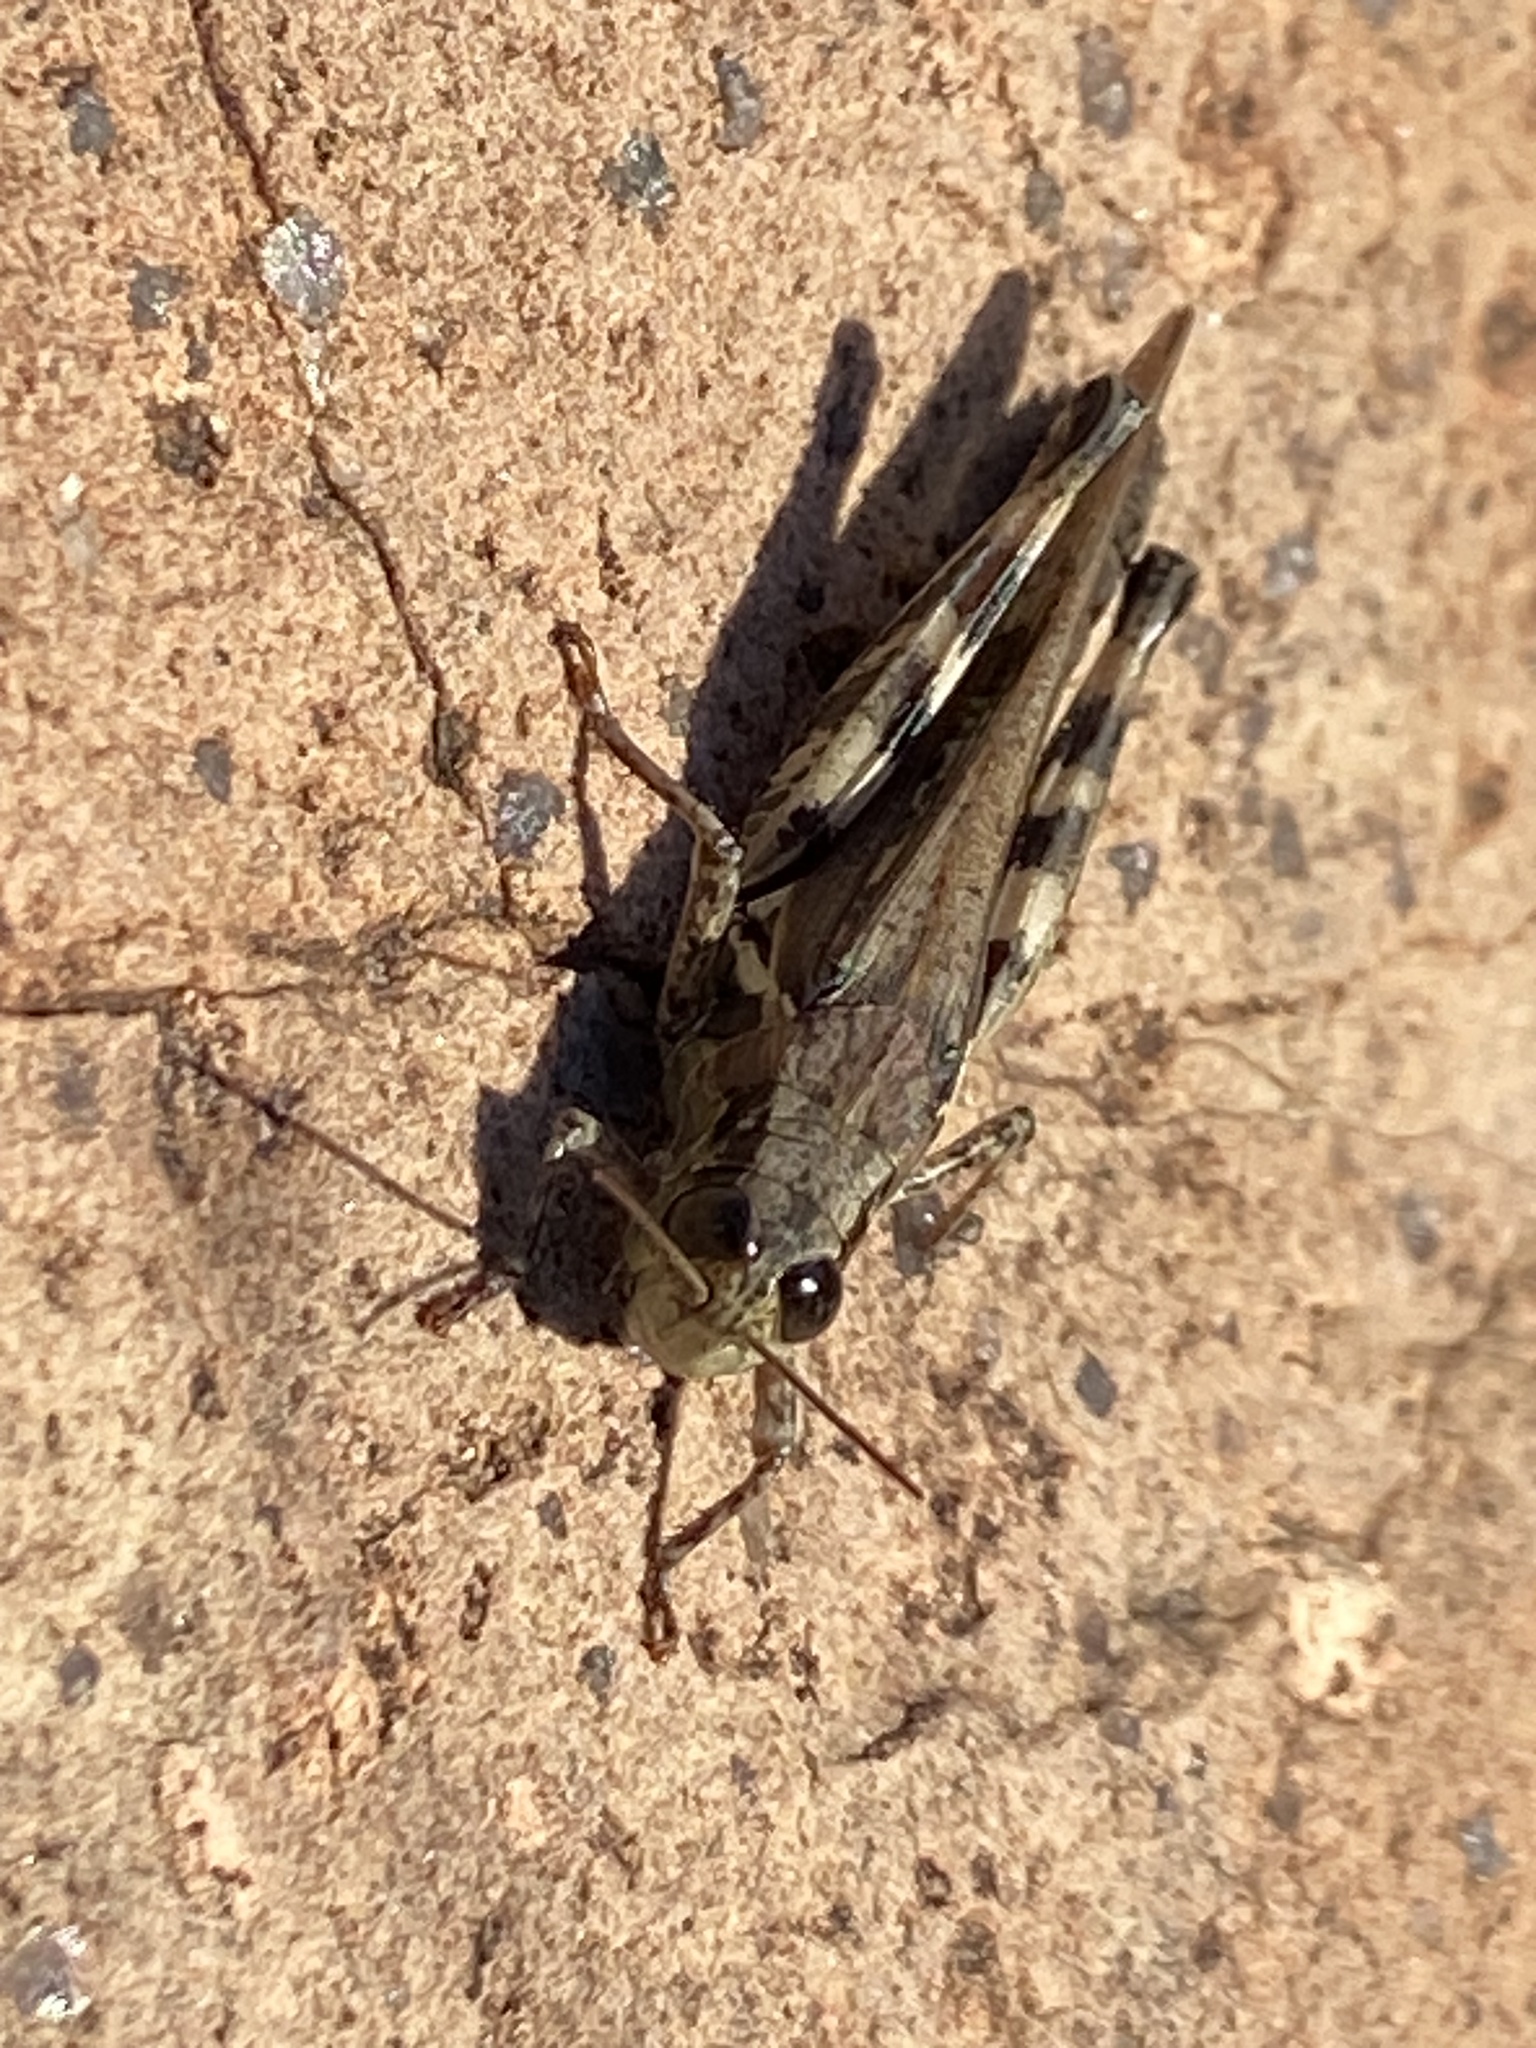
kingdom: Animalia
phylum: Arthropoda
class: Insecta
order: Orthoptera
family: Acrididae
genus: Melanoplus
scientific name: Melanoplus ponderosus
